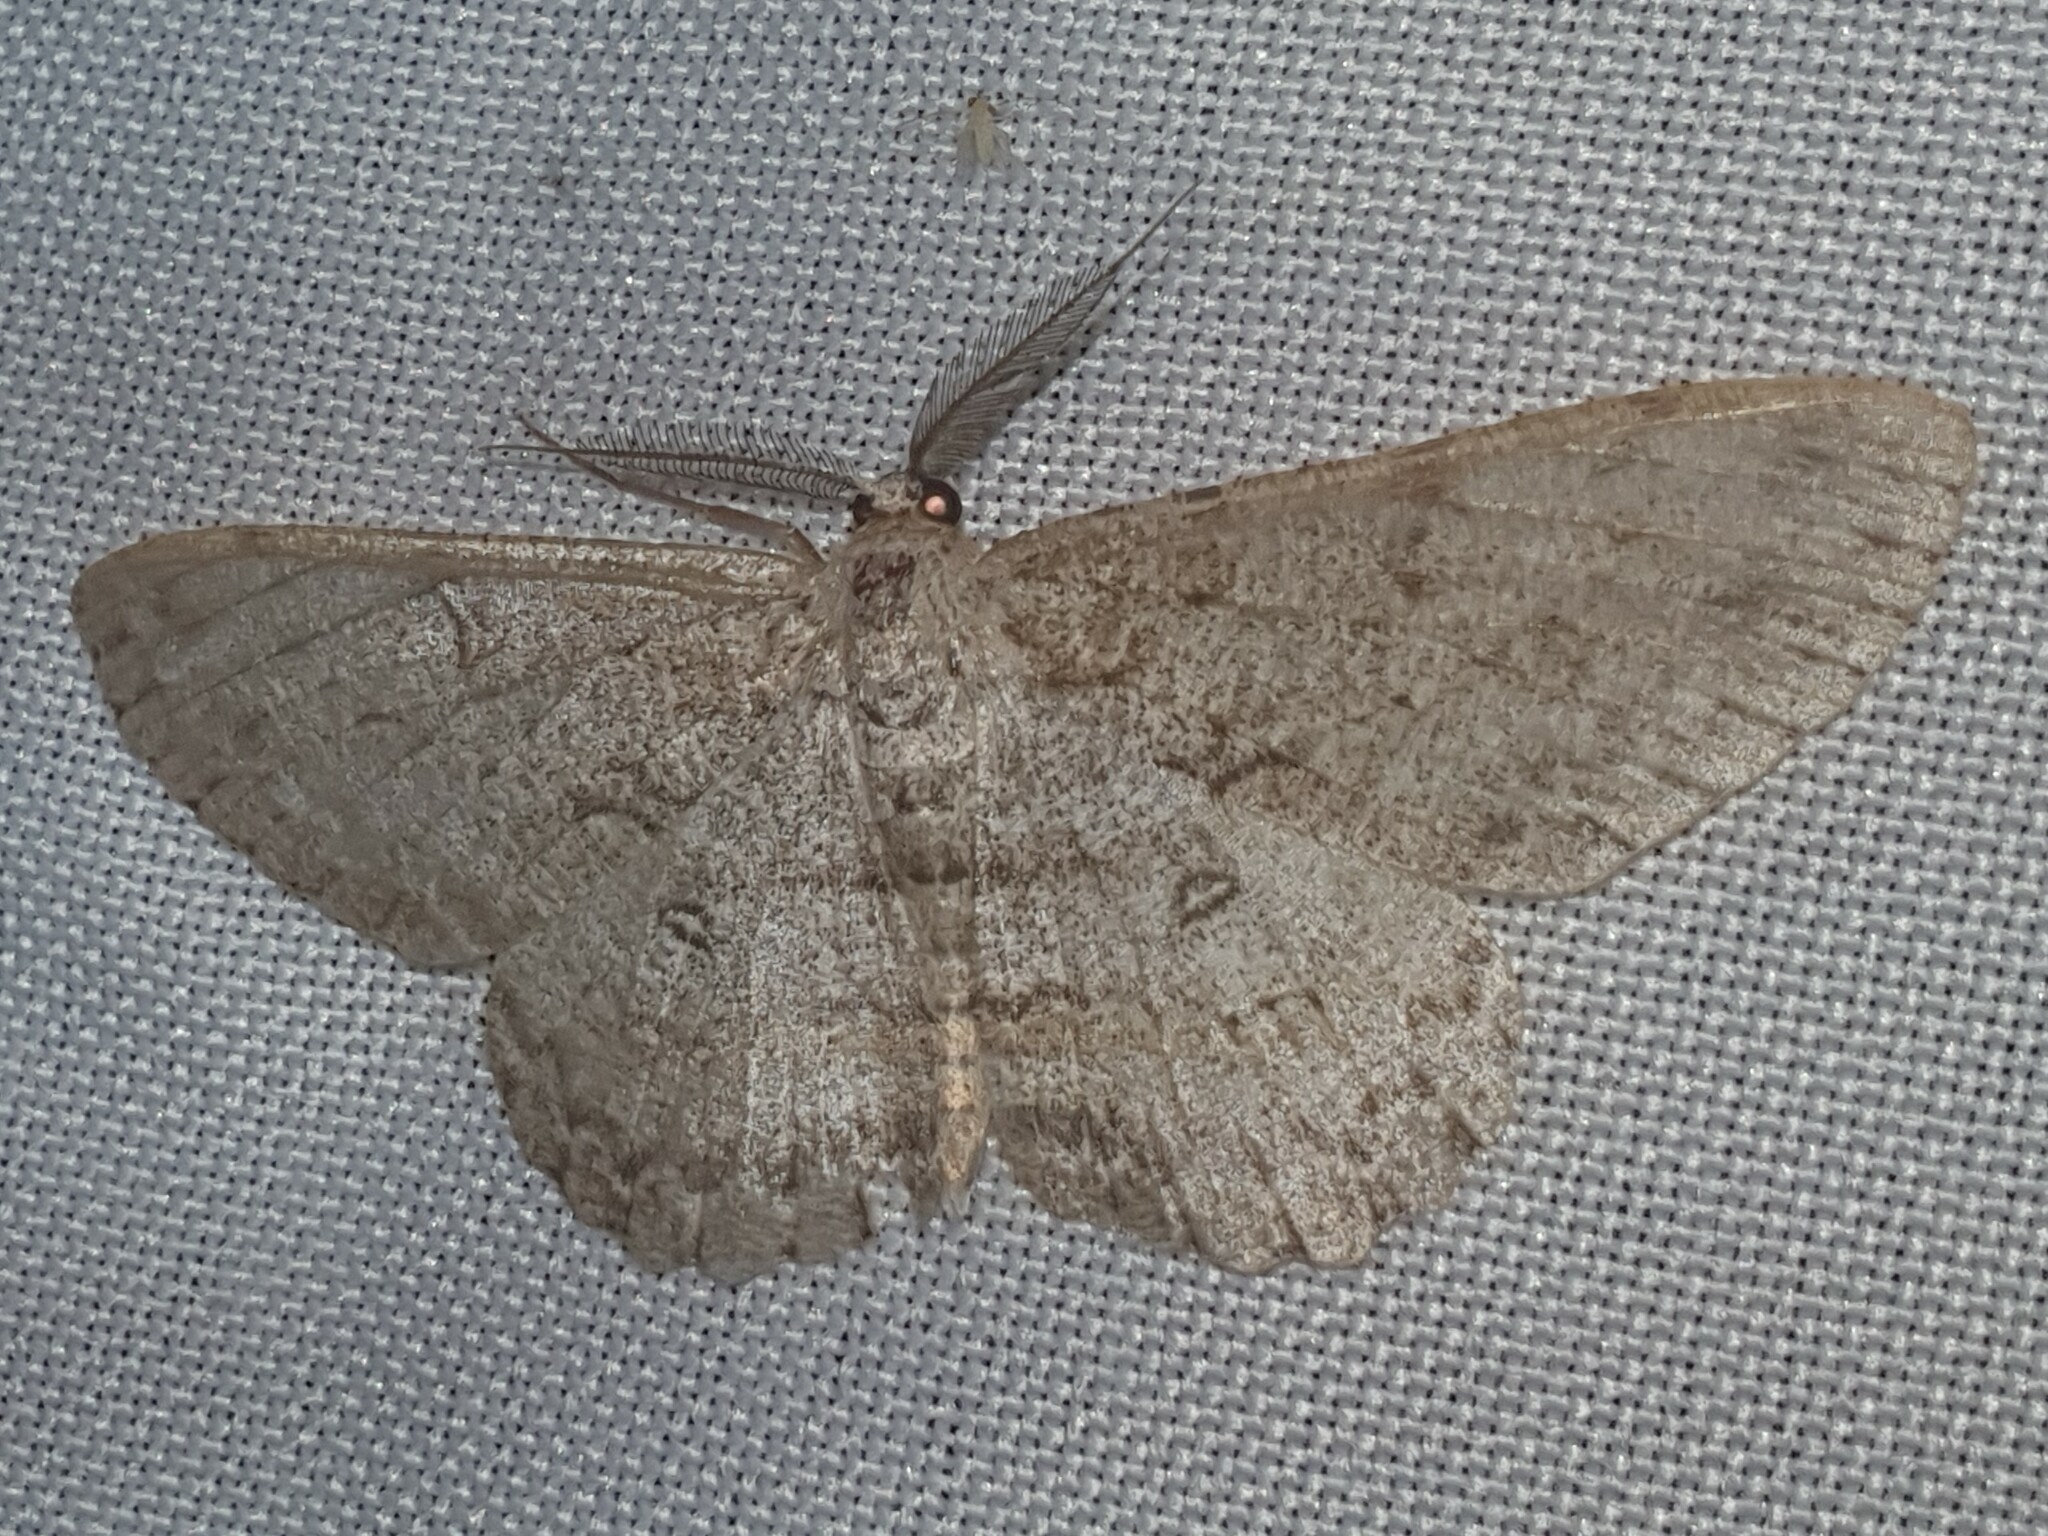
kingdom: Animalia
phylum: Arthropoda
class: Insecta
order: Lepidoptera
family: Geometridae
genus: Hypomecis
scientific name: Hypomecis punctinalis
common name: Pale oak beauty
